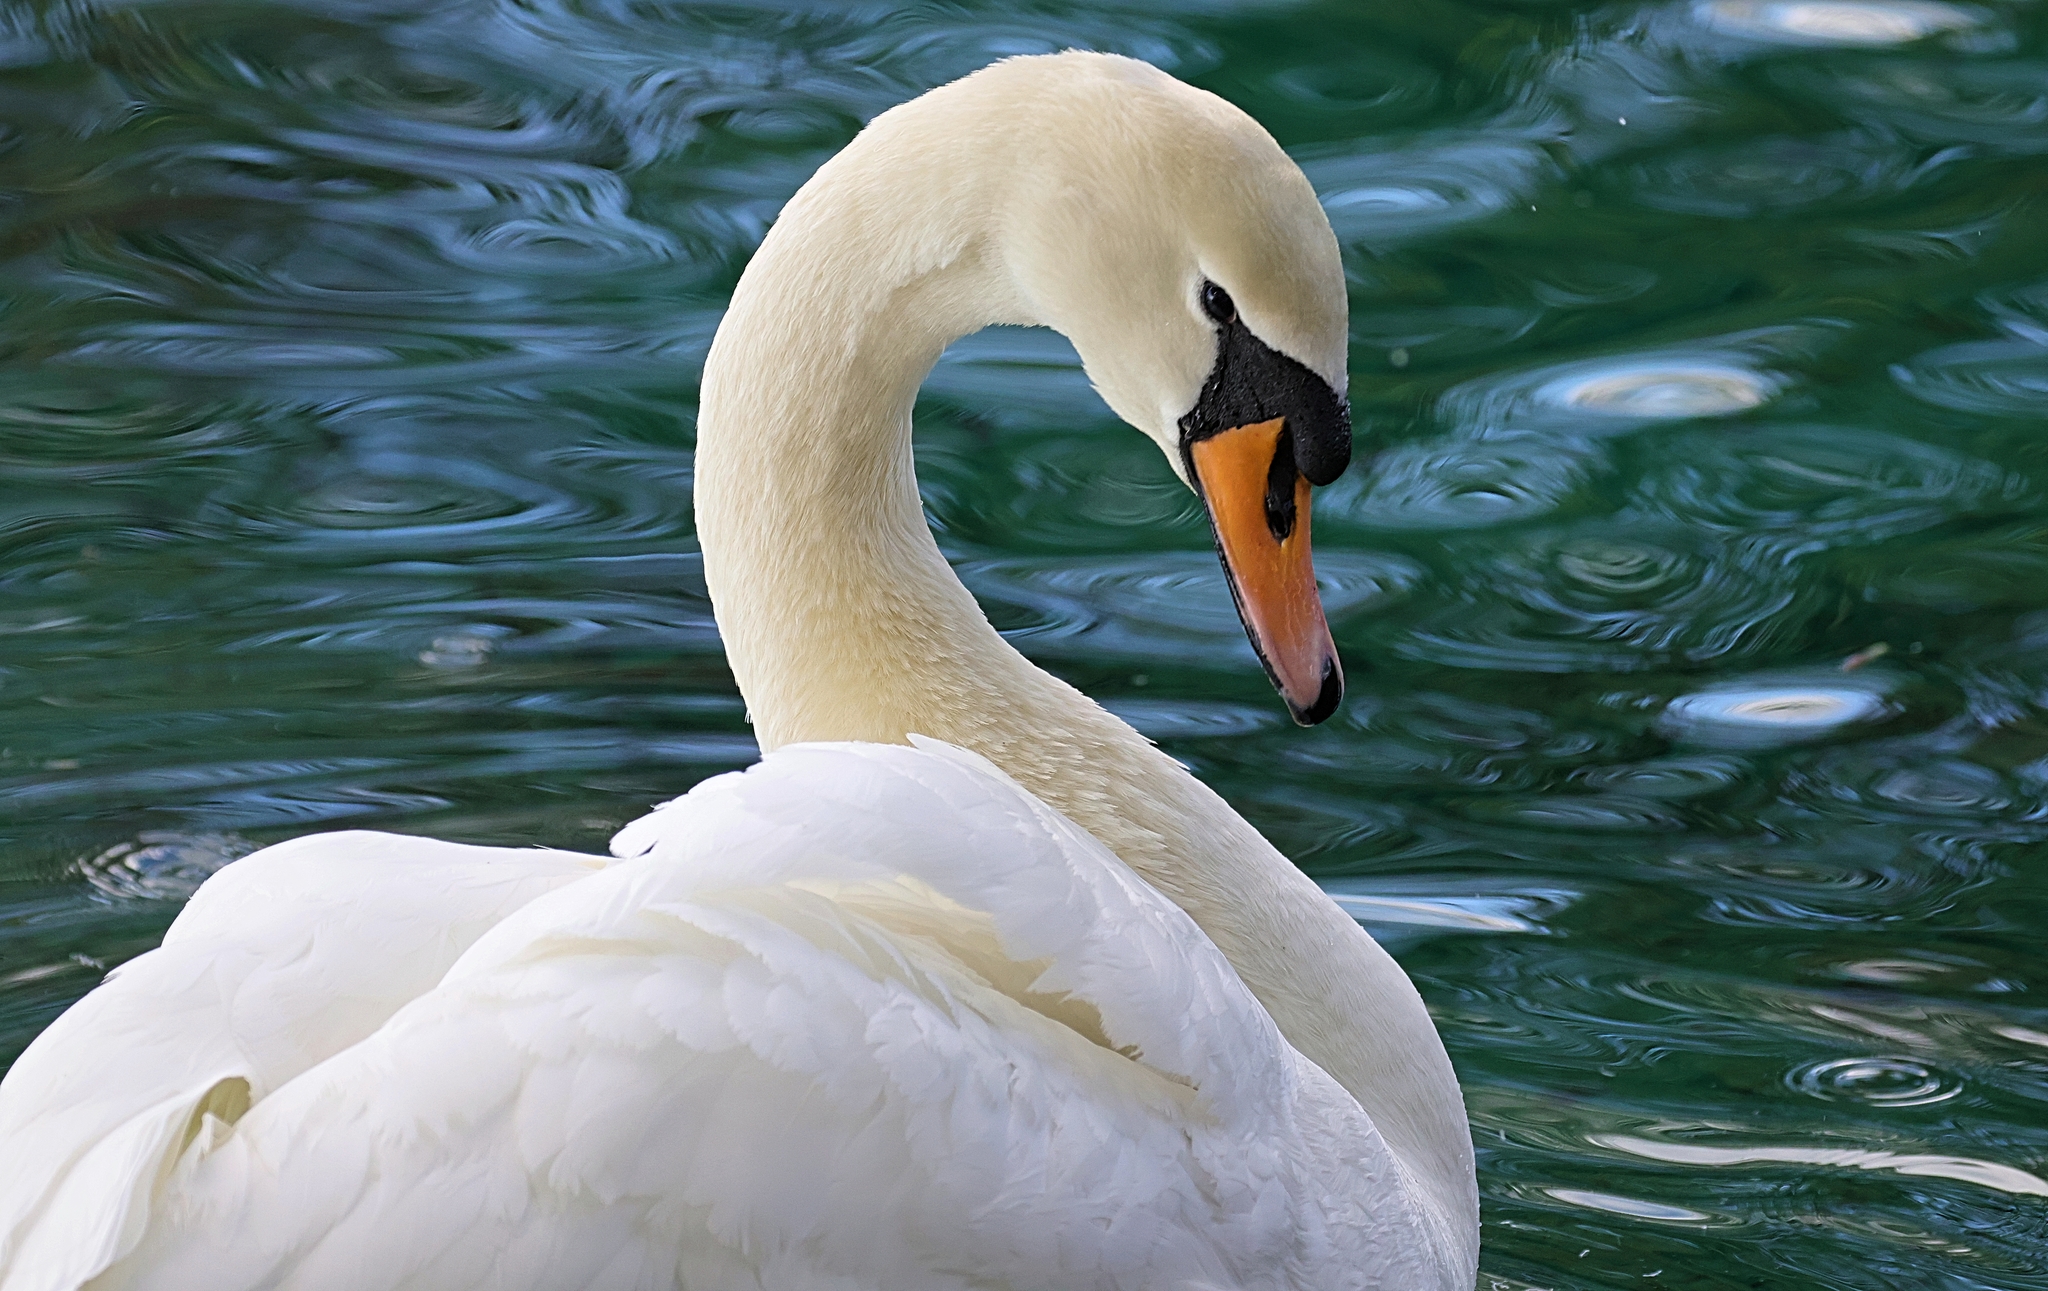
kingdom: Animalia
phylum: Chordata
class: Aves
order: Anseriformes
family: Anatidae
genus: Cygnus
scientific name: Cygnus olor
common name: Mute swan
